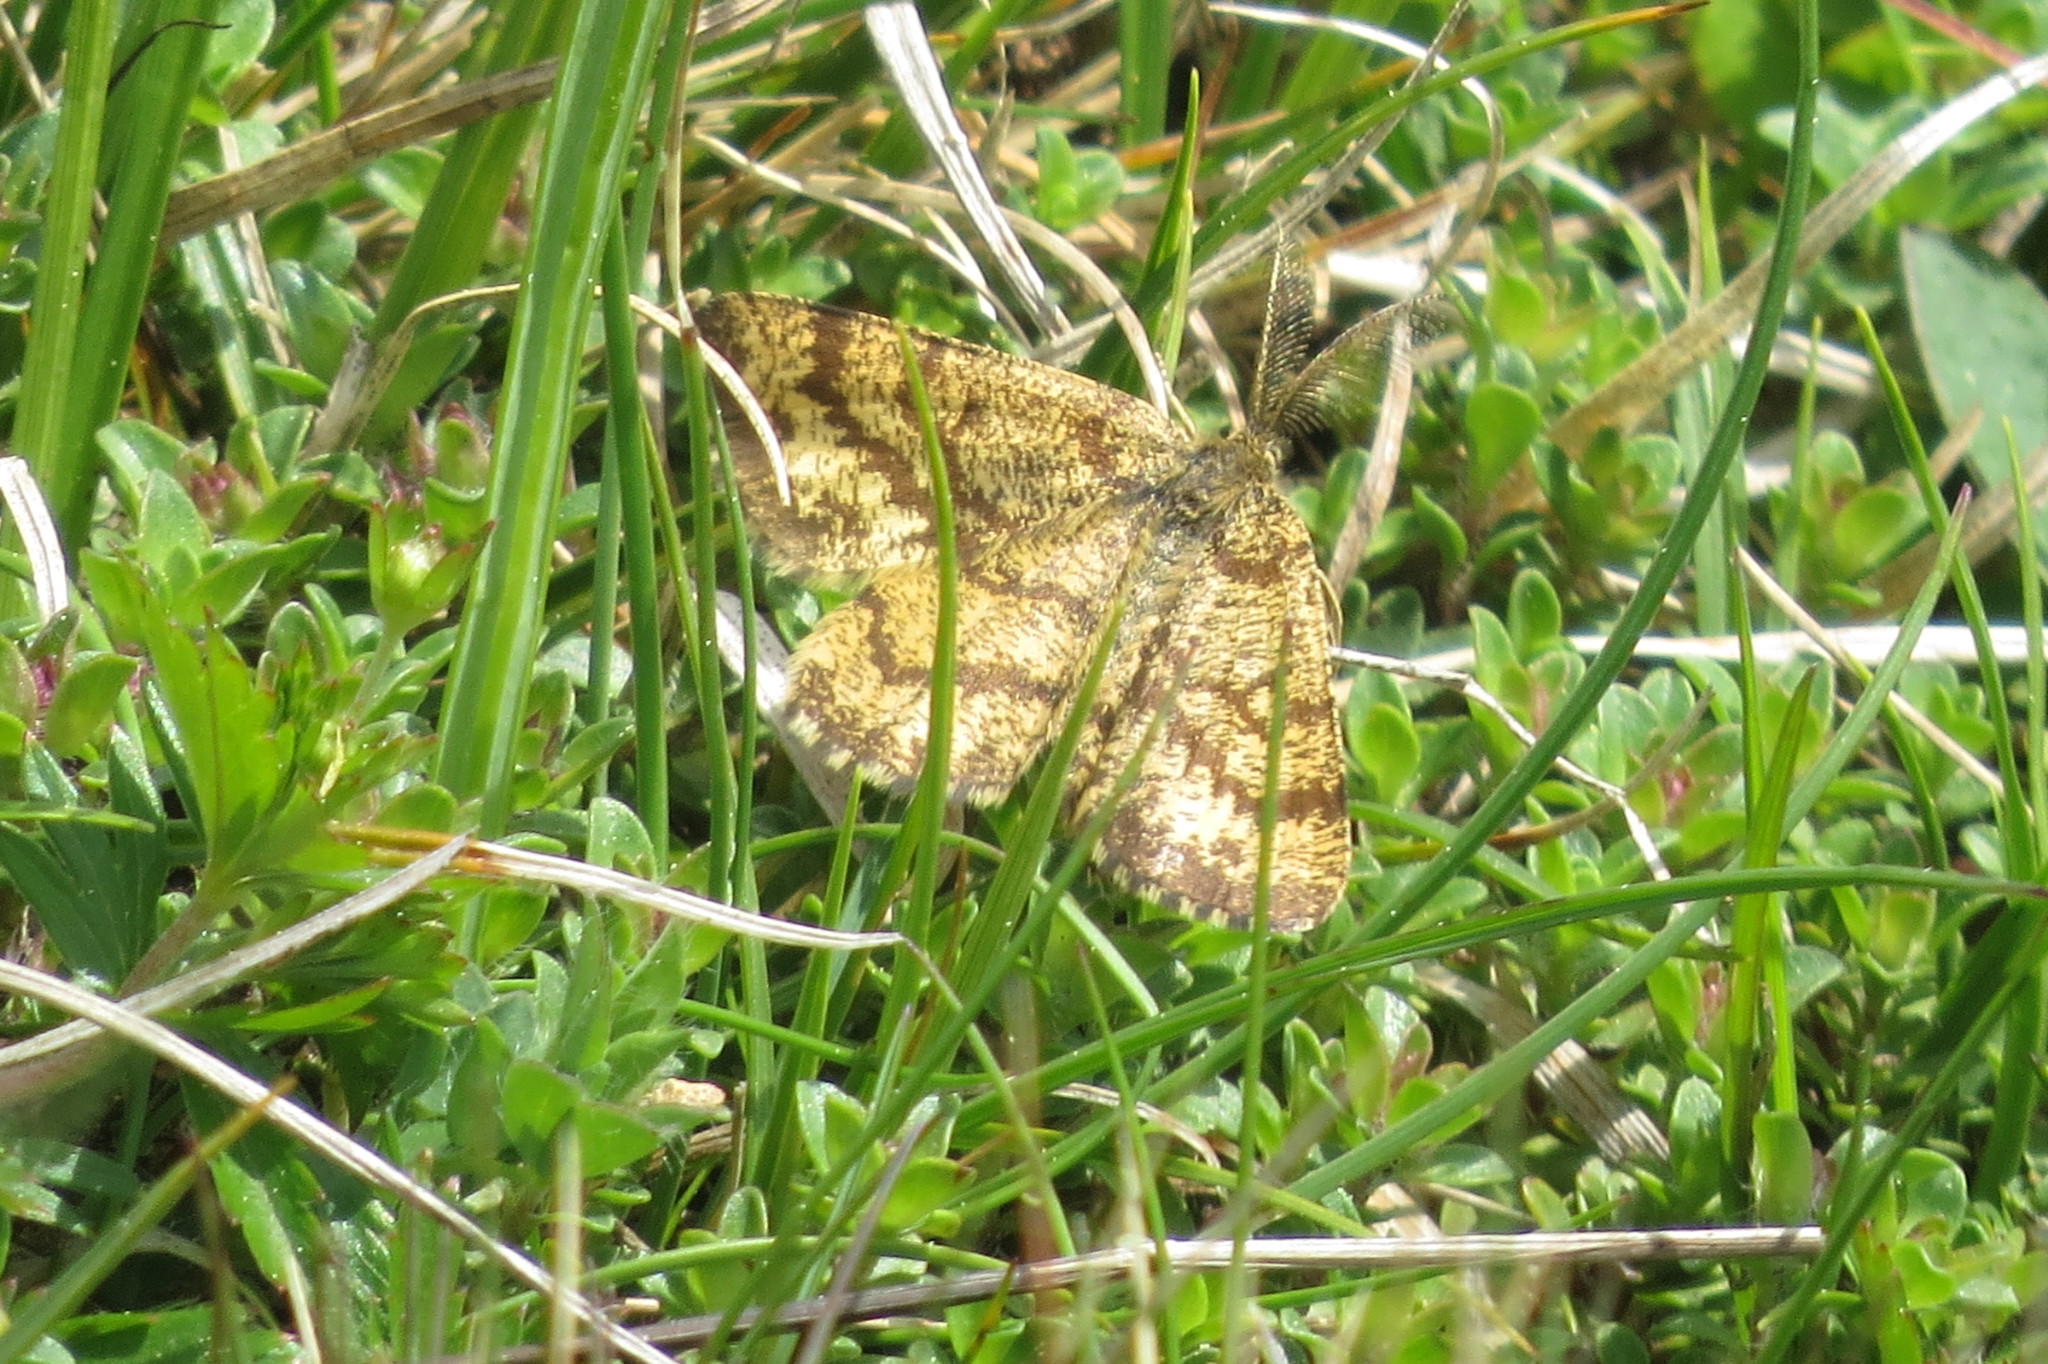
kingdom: Animalia
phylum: Arthropoda
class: Insecta
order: Lepidoptera
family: Geometridae
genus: Ematurga
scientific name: Ematurga atomaria
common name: Common heath
